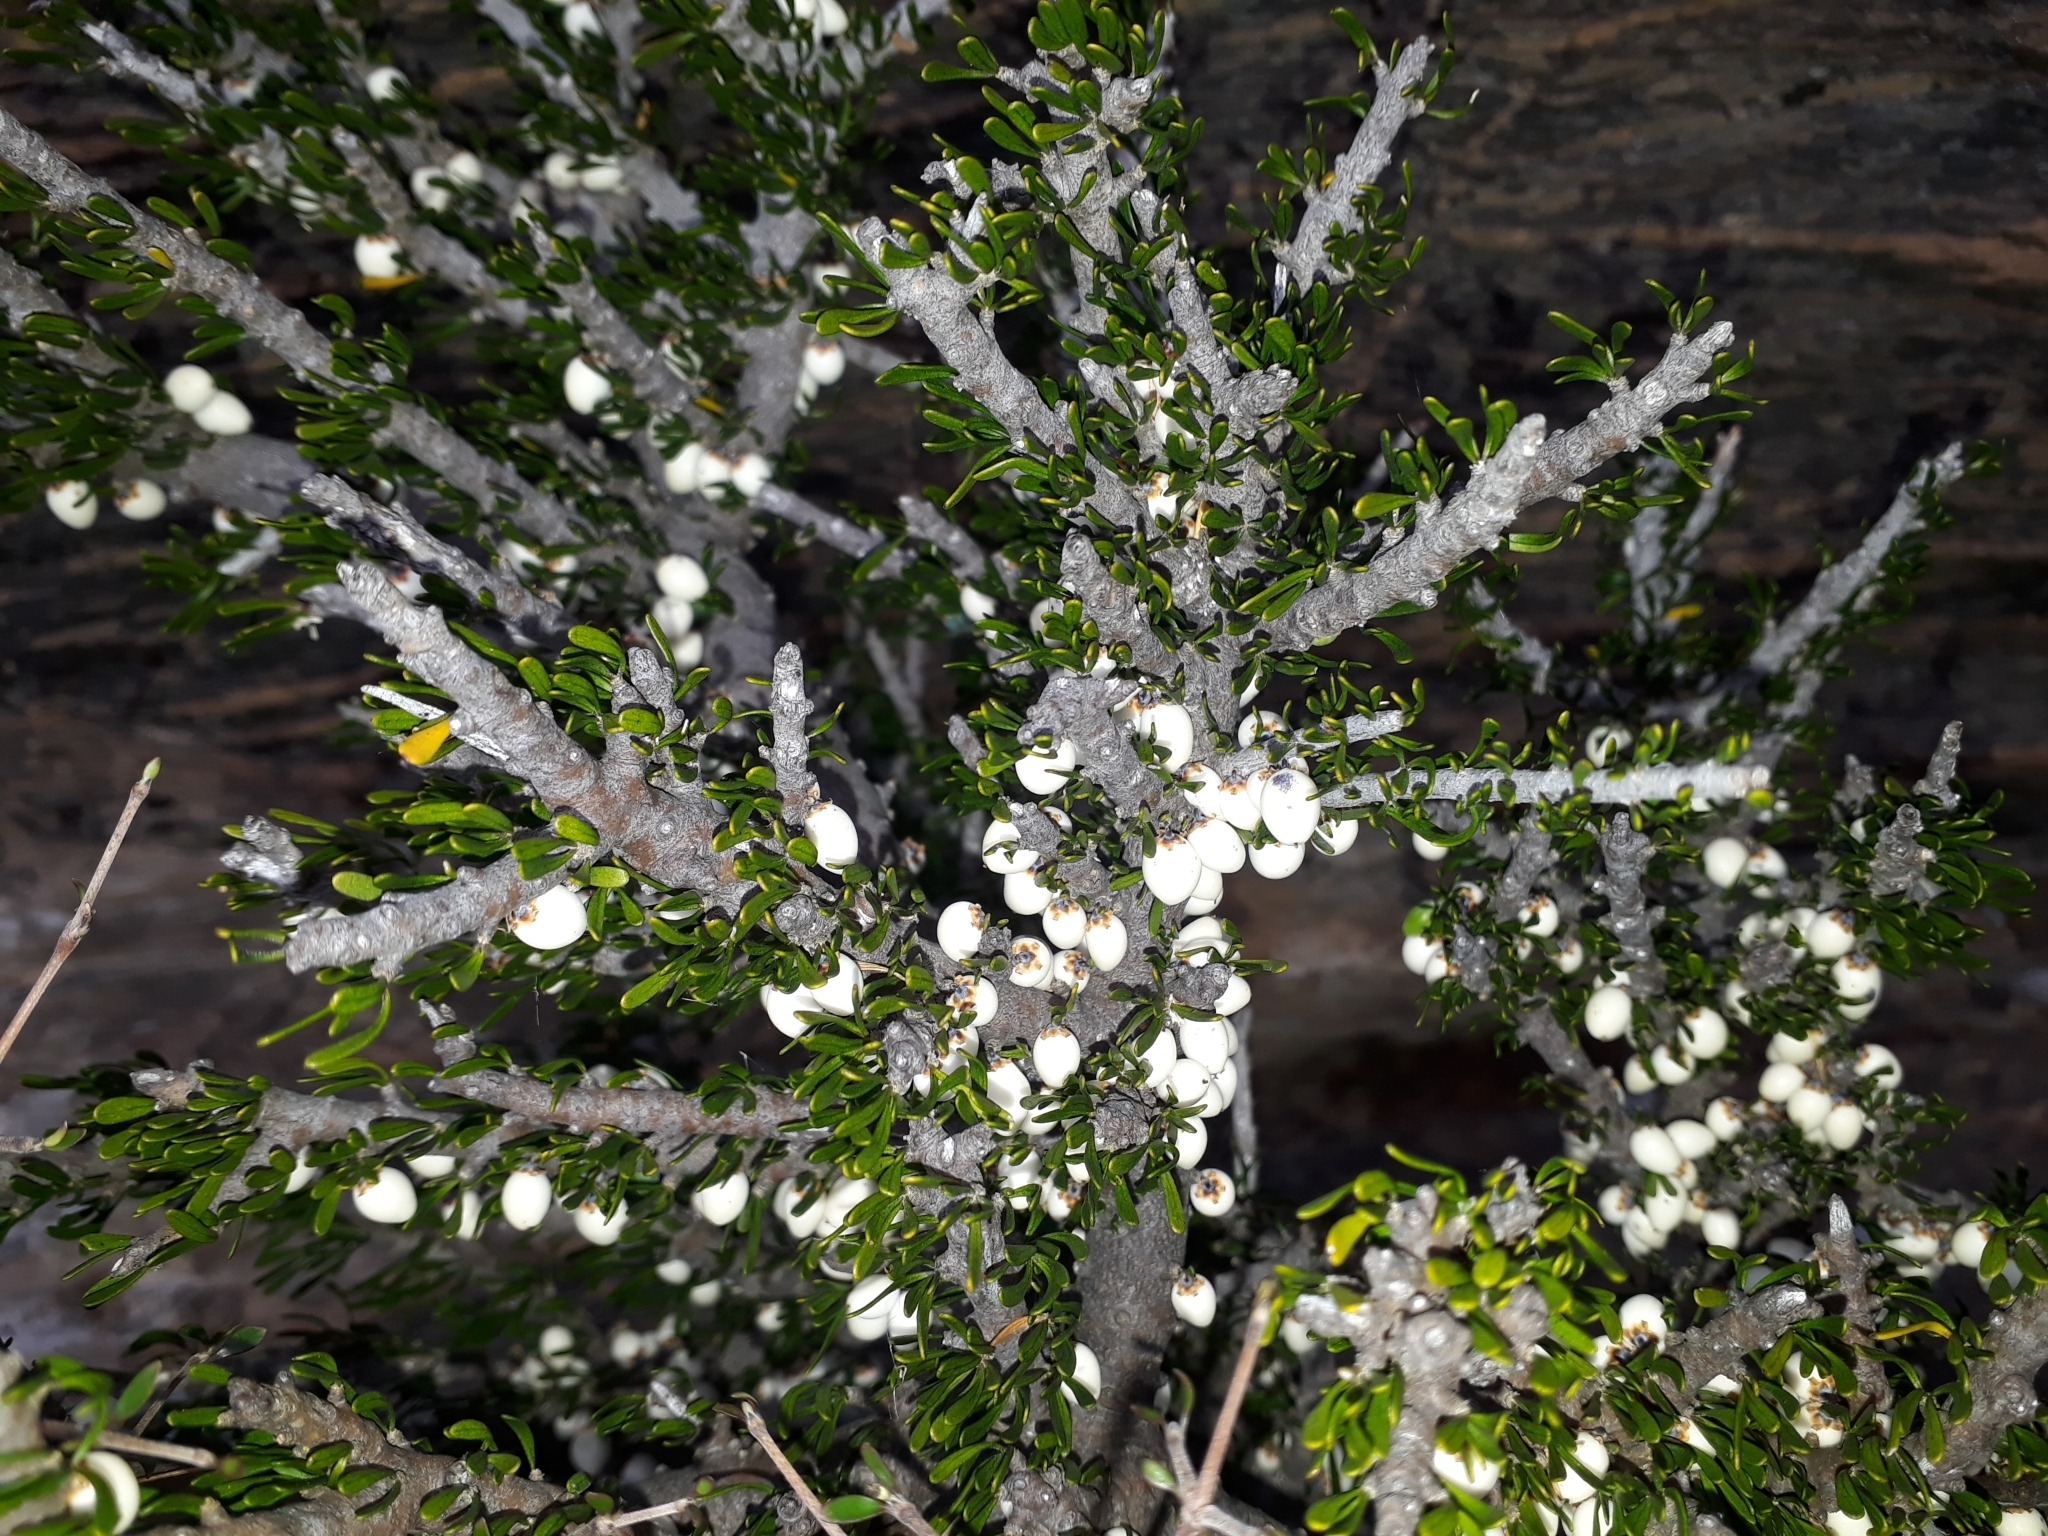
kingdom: Plantae
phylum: Tracheophyta
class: Magnoliopsida
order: Malpighiales
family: Violaceae
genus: Melicytus
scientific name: Melicytus alpinus
